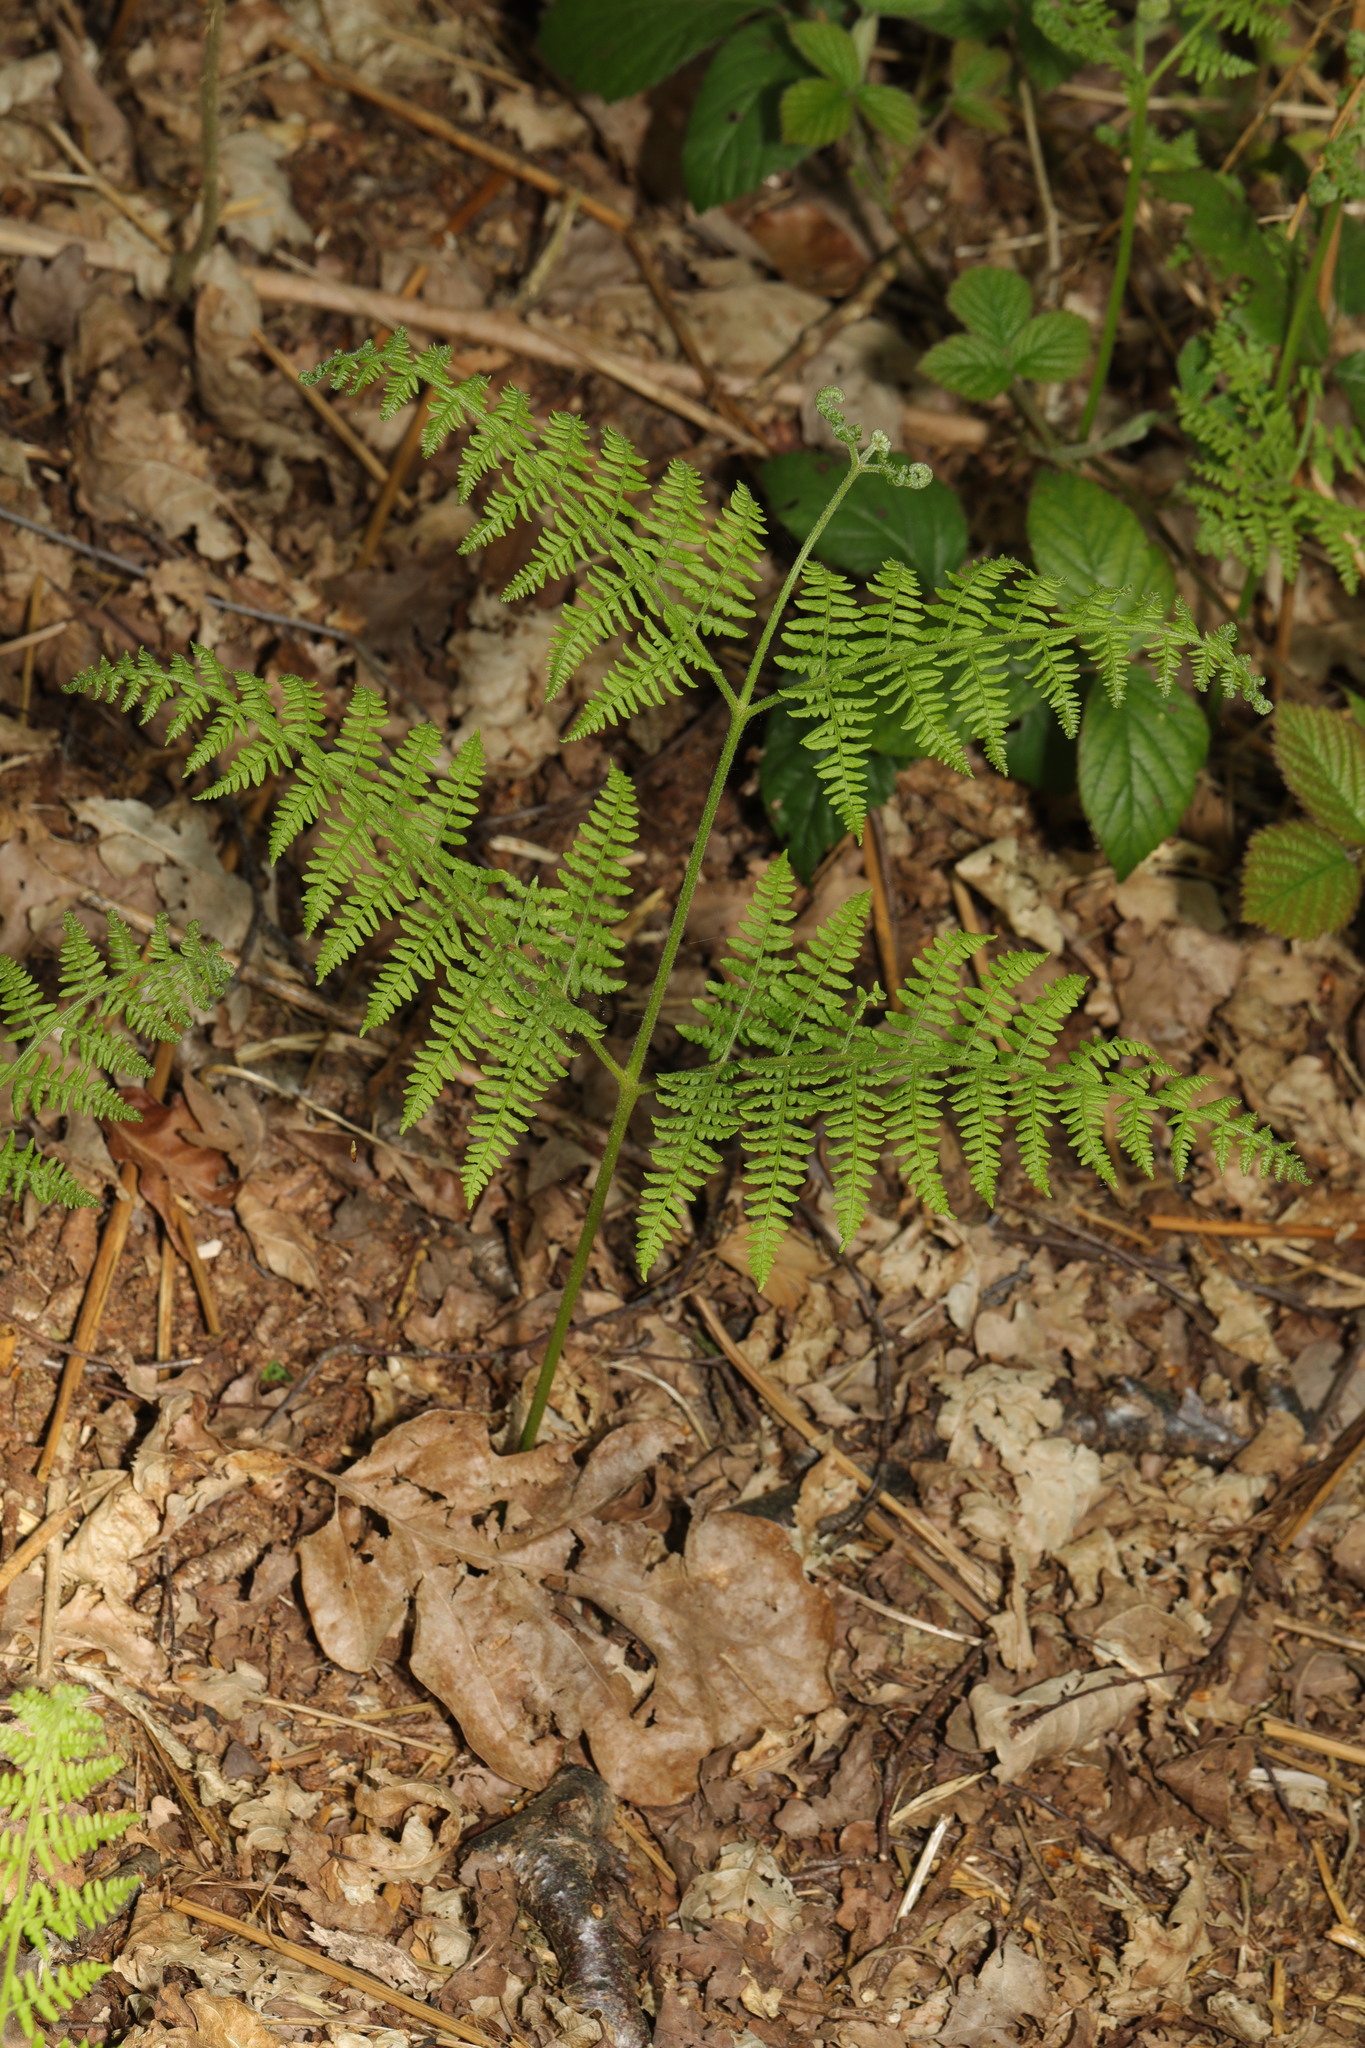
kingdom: Plantae
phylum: Tracheophyta
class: Polypodiopsida
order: Polypodiales
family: Dennstaedtiaceae
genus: Pteridium
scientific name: Pteridium aquilinum
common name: Bracken
